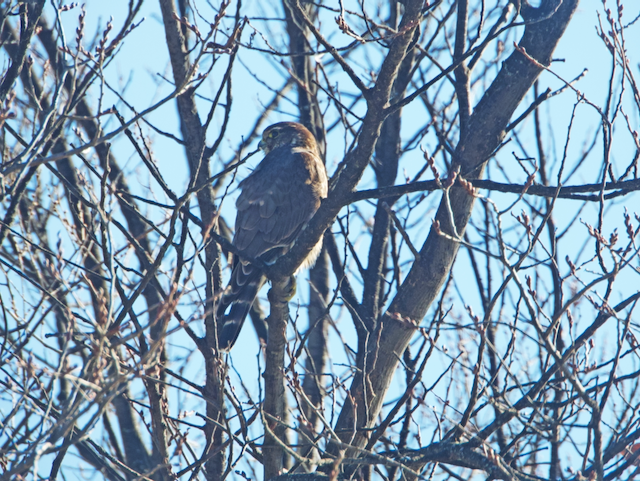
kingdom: Animalia
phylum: Chordata
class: Aves
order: Falconiformes
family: Falconidae
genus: Falco
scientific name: Falco columbarius
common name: Merlin
